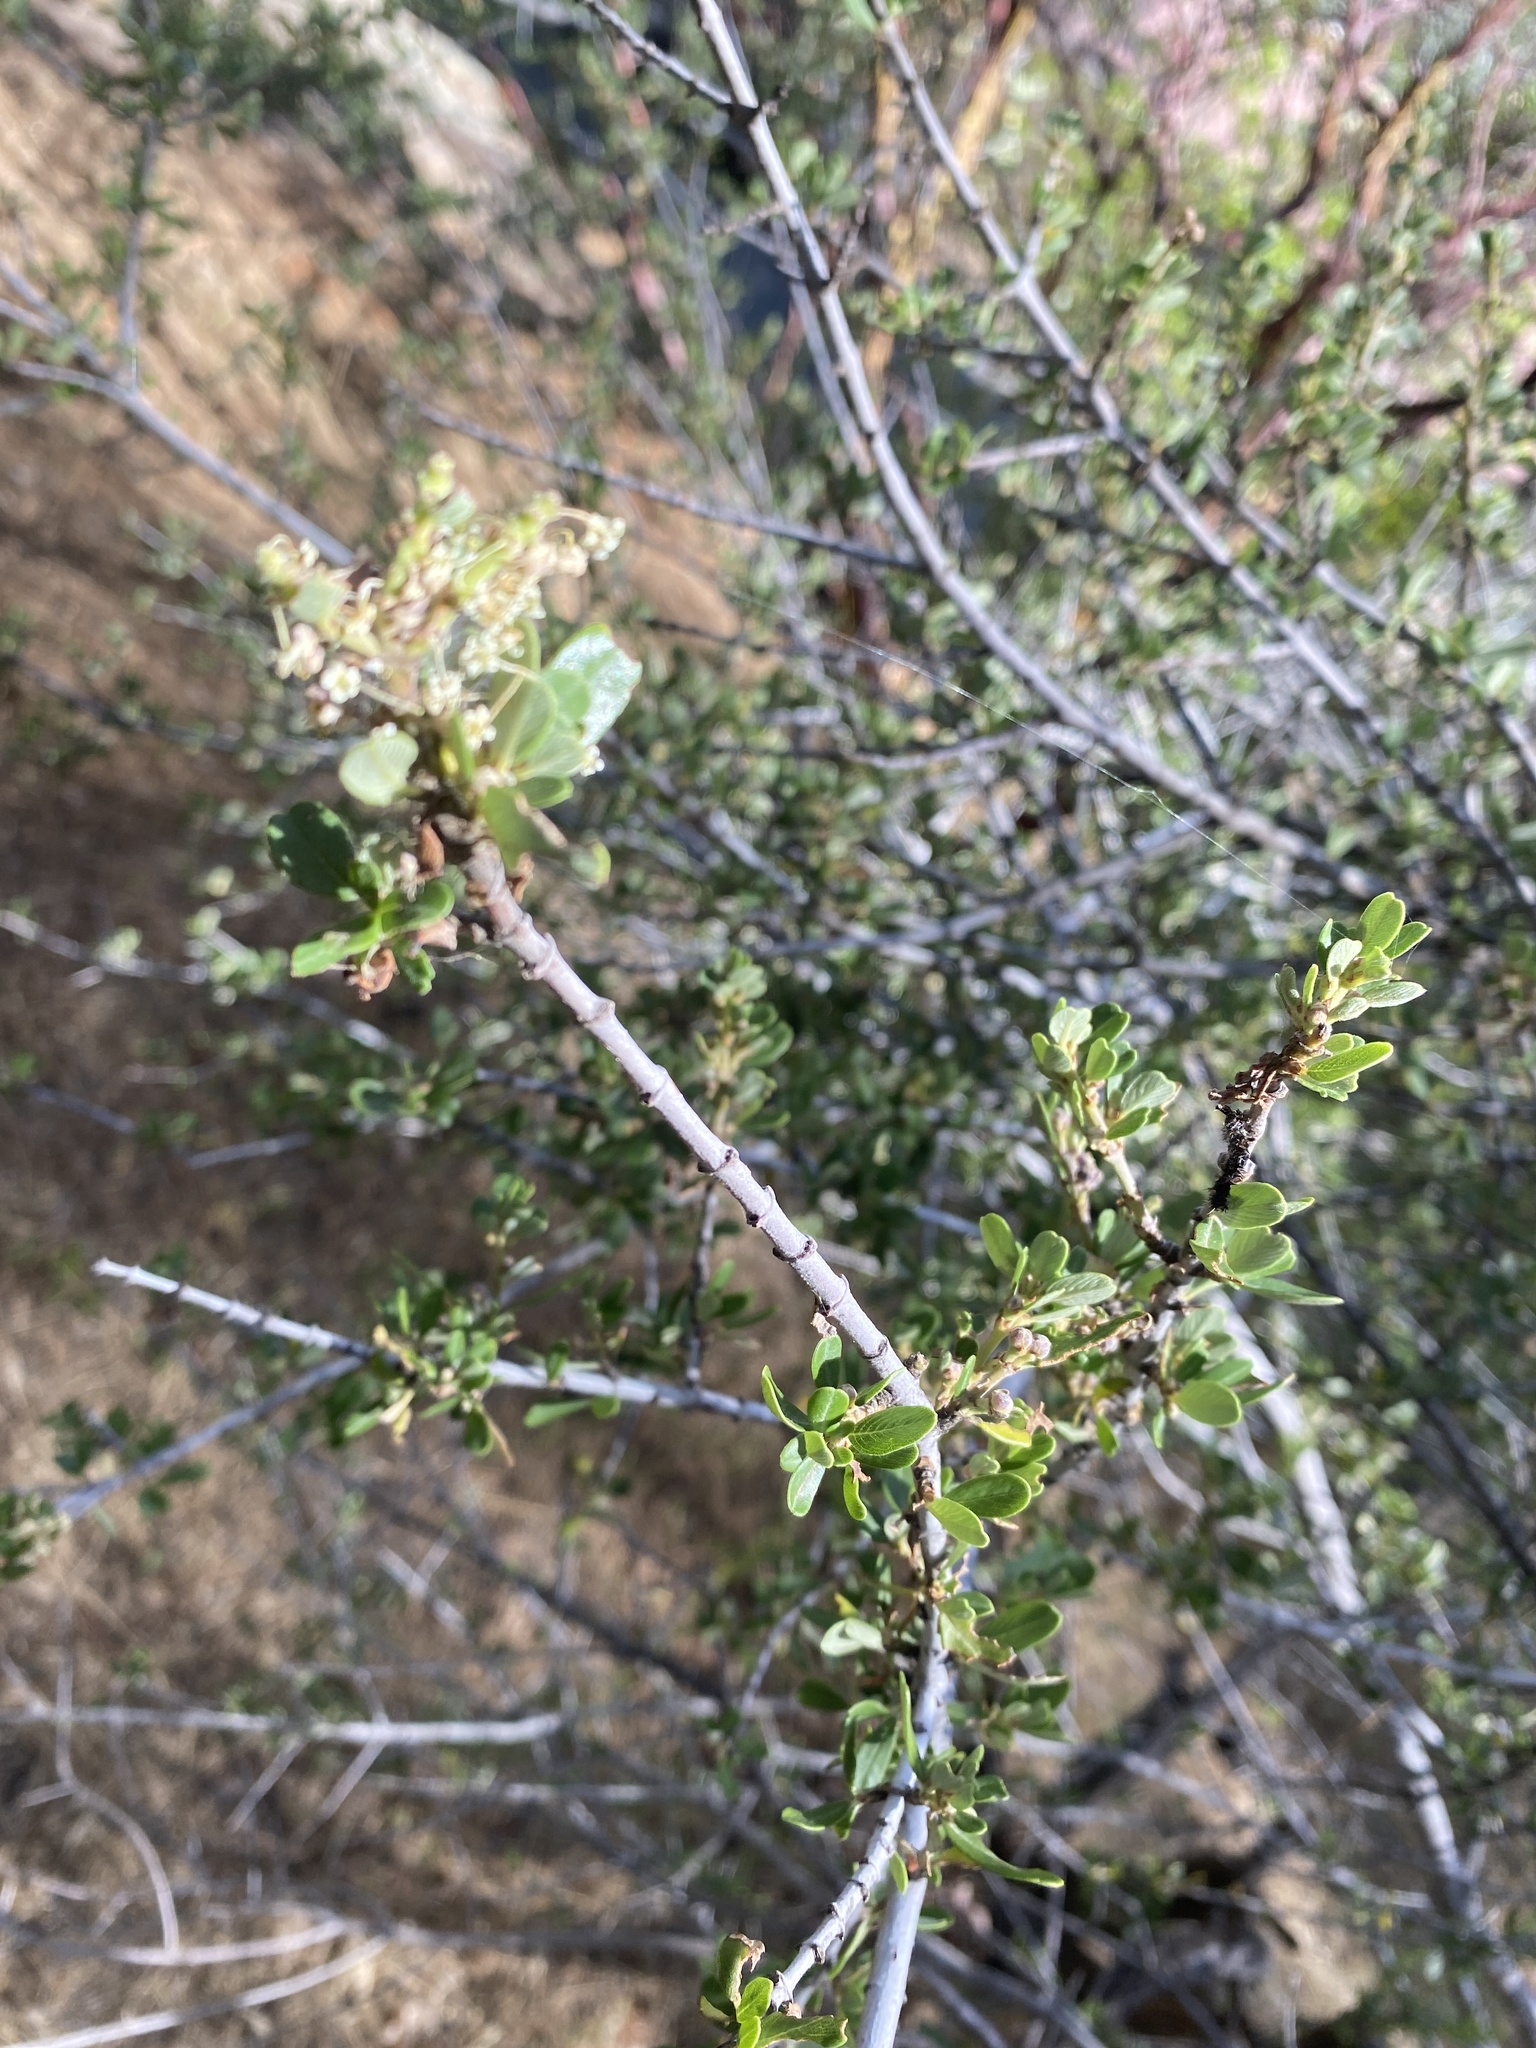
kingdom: Plantae
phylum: Tracheophyta
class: Magnoliopsida
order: Rosales
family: Rhamnaceae
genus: Ceanothus
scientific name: Ceanothus cuneatus
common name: Cuneate ceanothus
